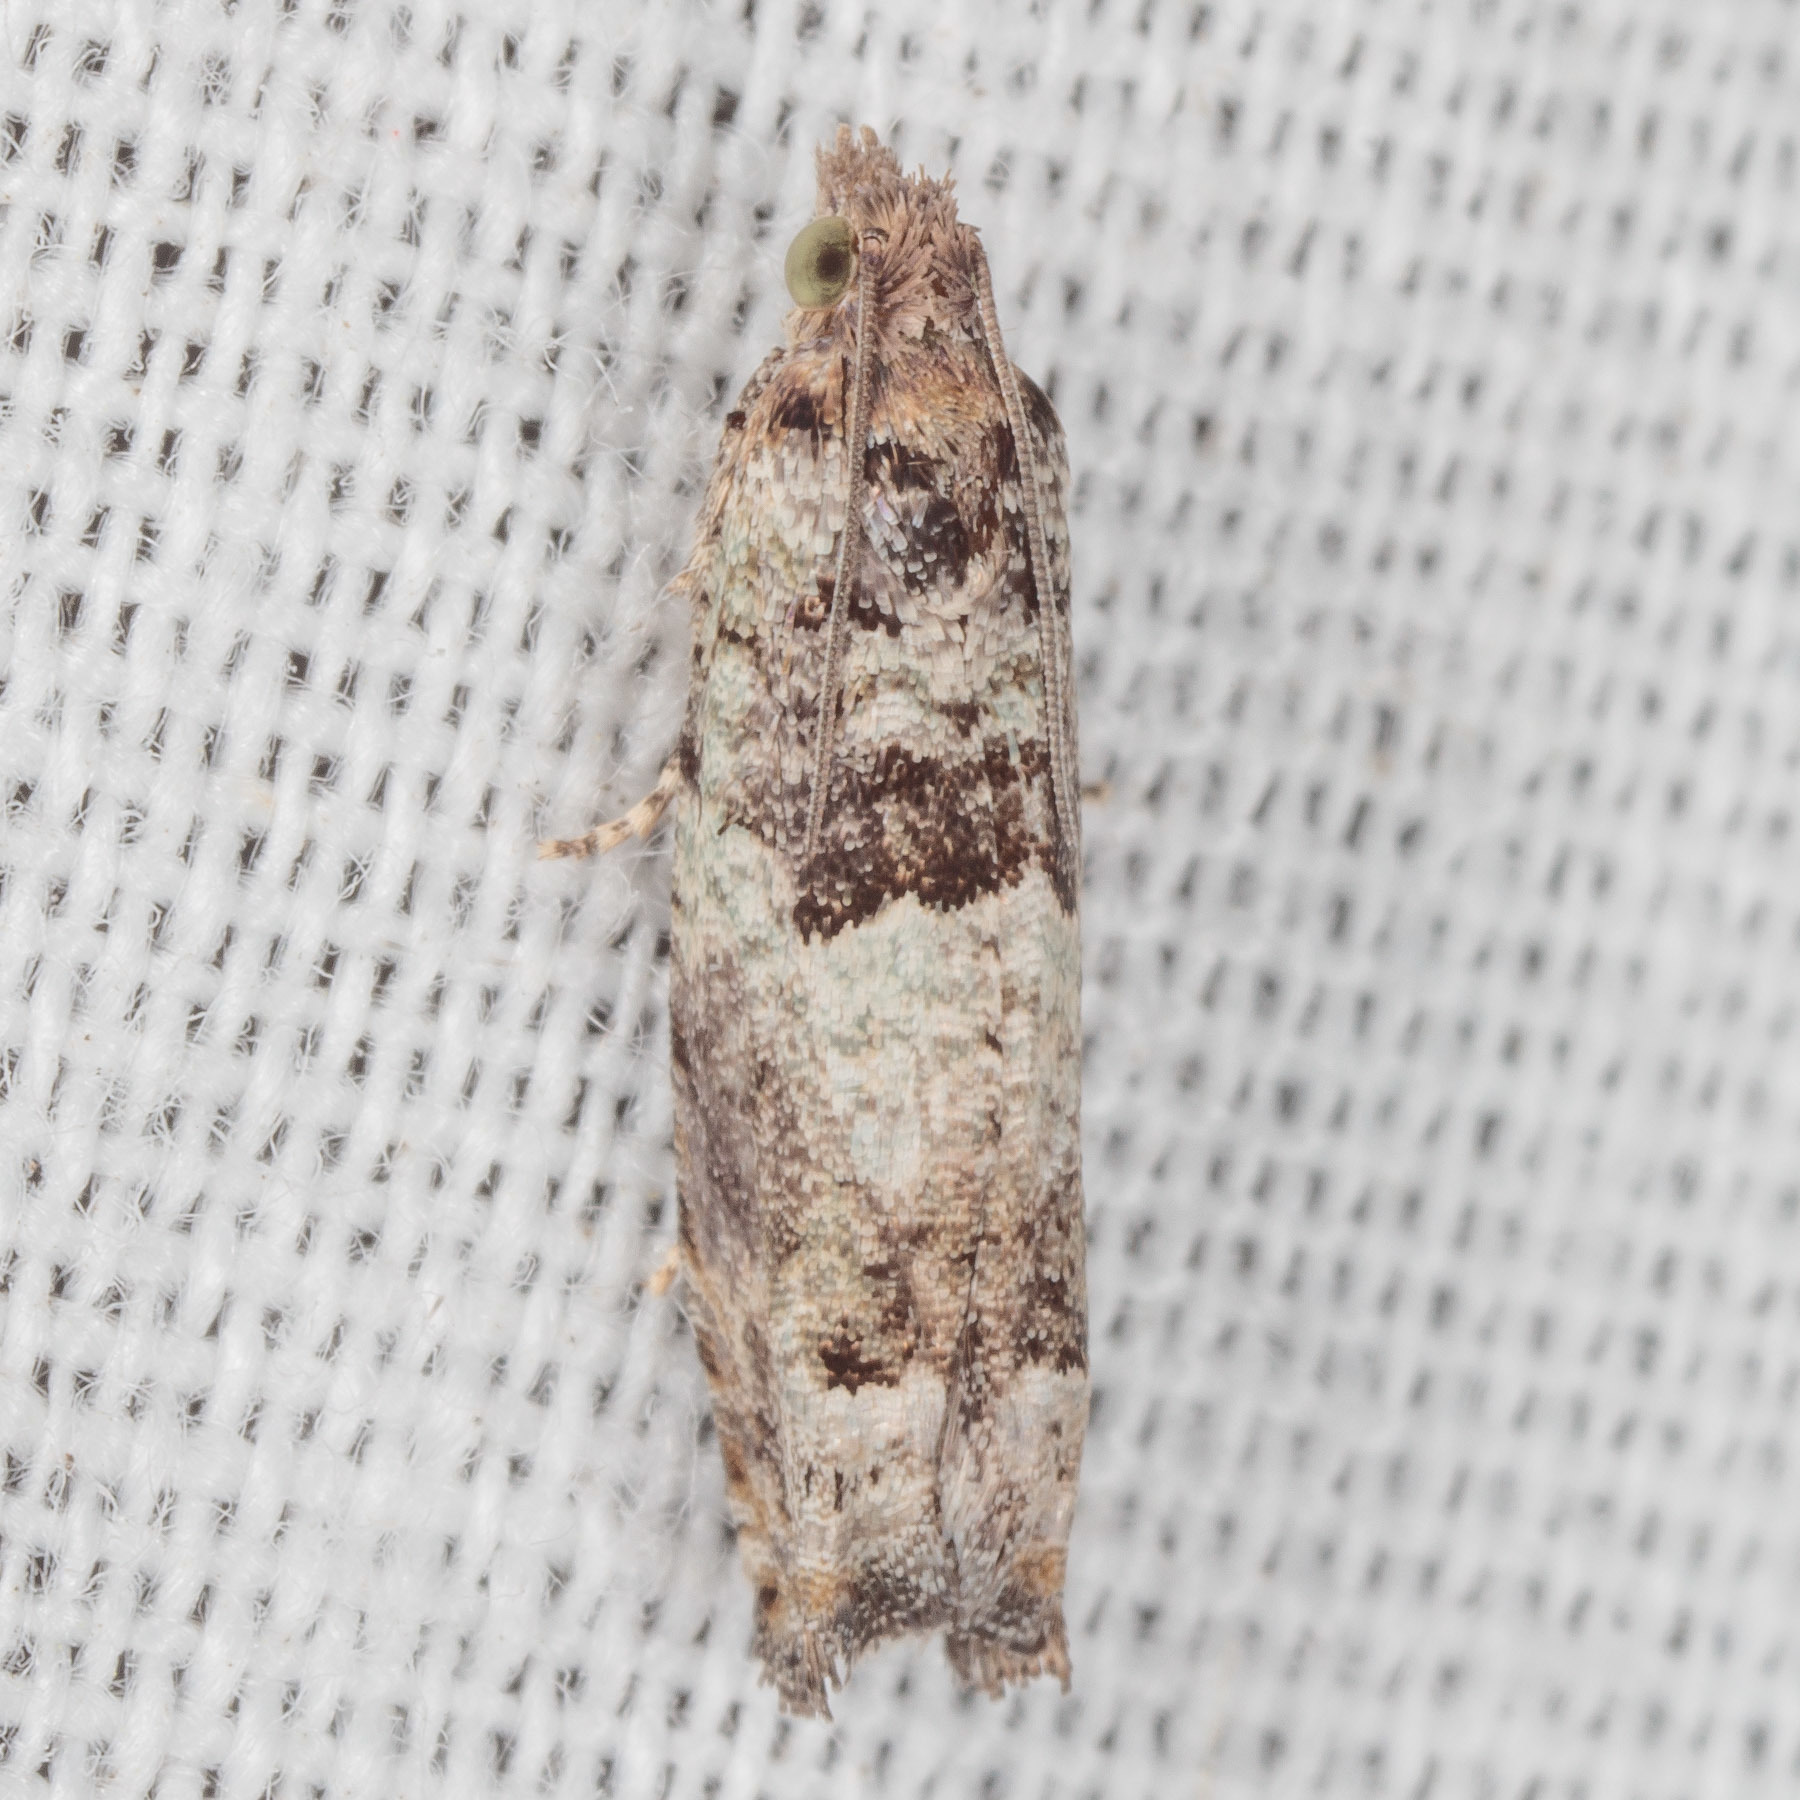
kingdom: Animalia
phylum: Arthropoda
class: Insecta
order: Lepidoptera
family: Tortricidae
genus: Pseudexentera
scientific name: Pseudexentera knudsoni
